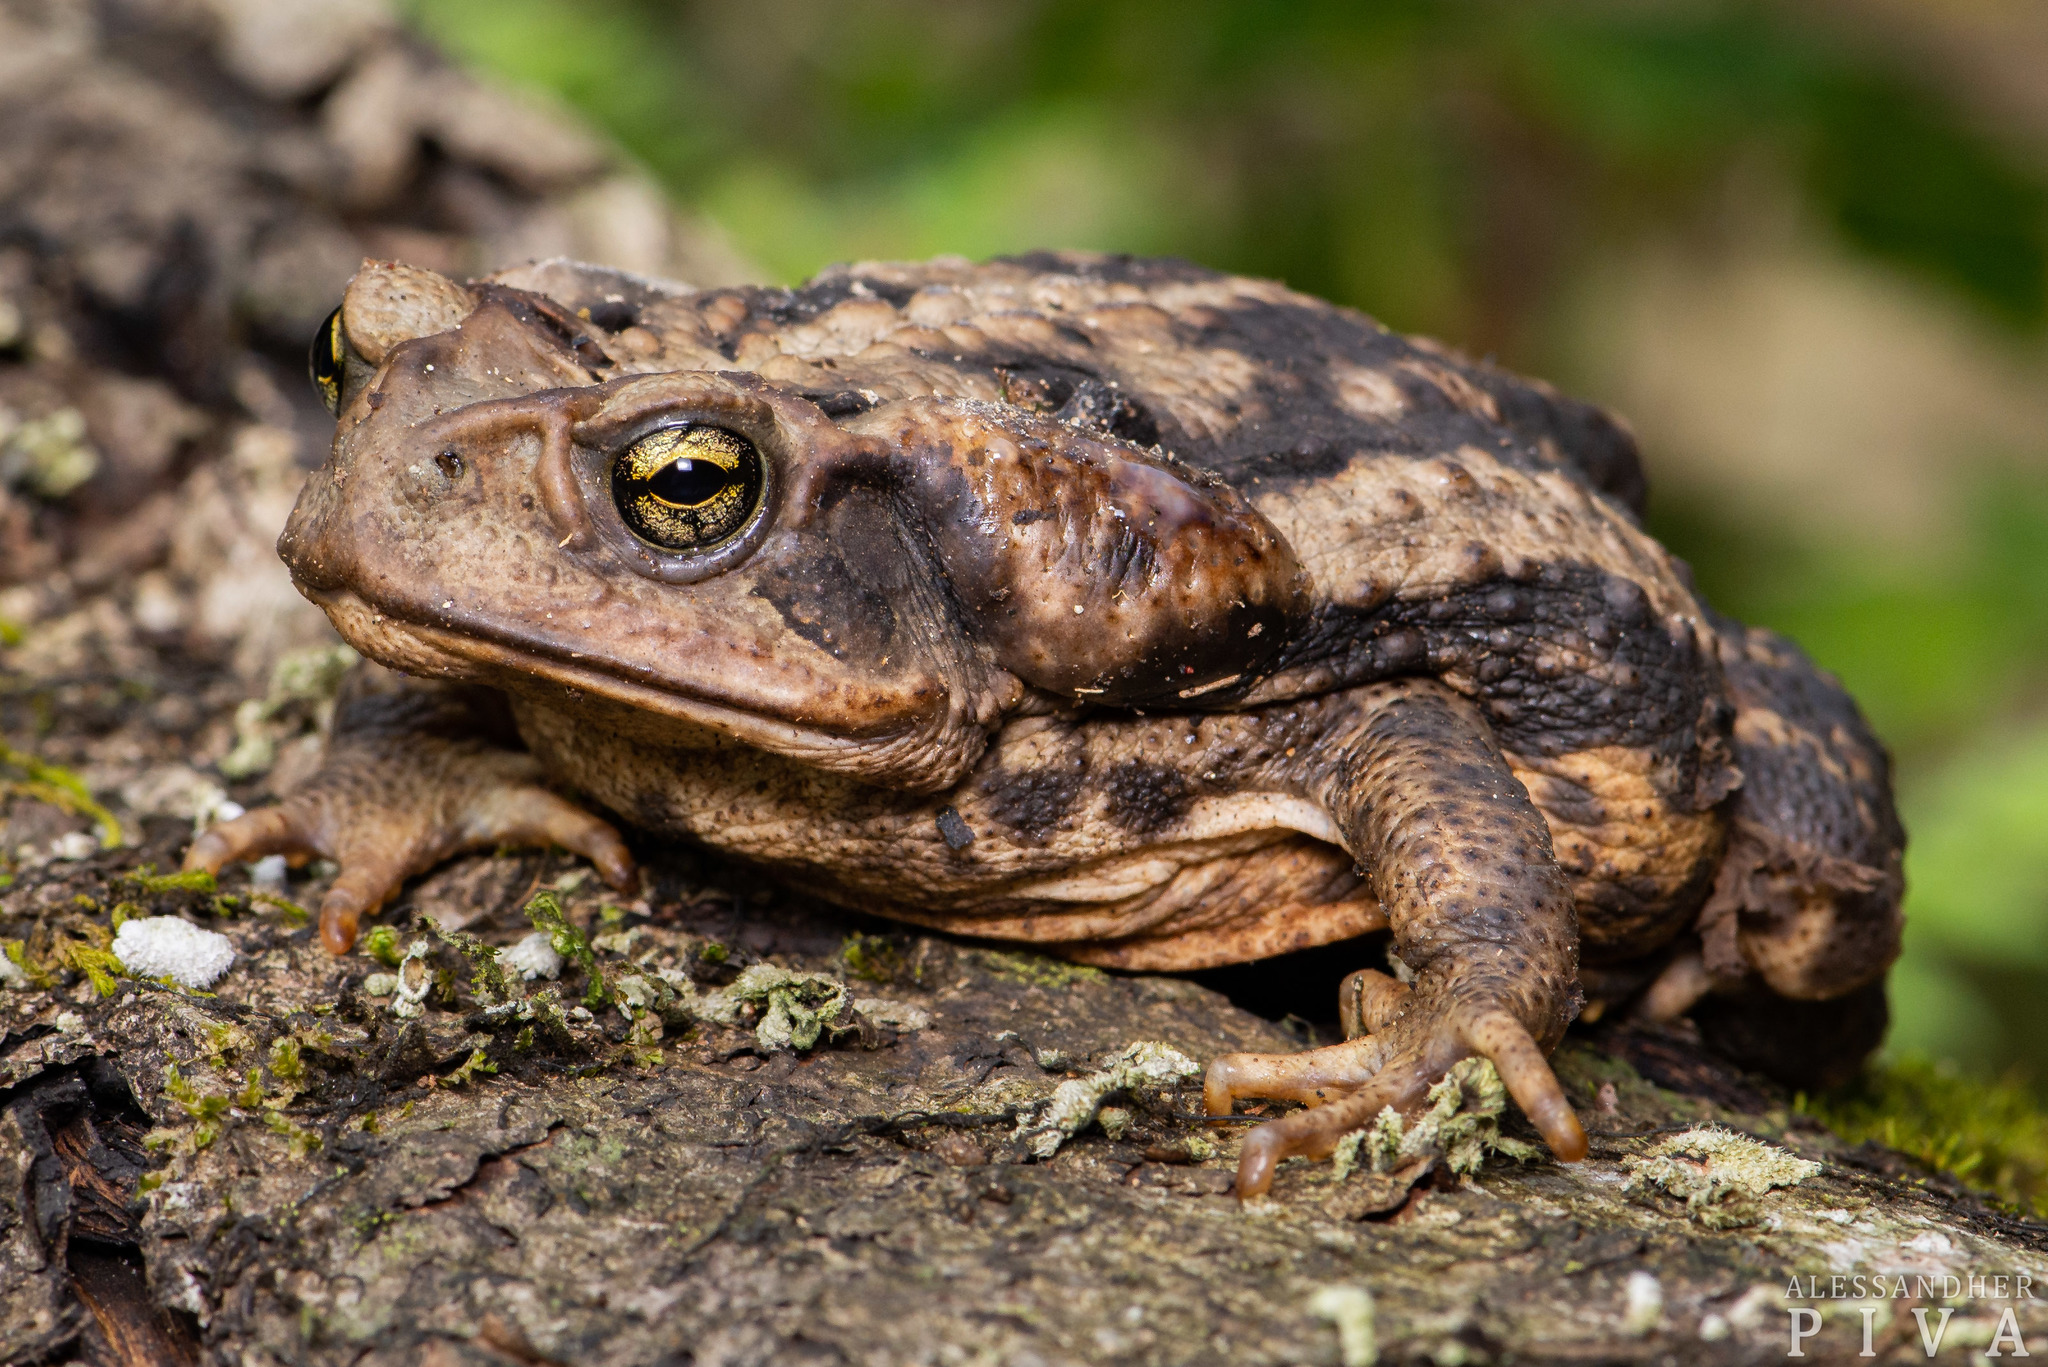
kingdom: Animalia
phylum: Chordata
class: Amphibia
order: Anura
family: Bufonidae
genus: Rhinella
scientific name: Rhinella icterica
